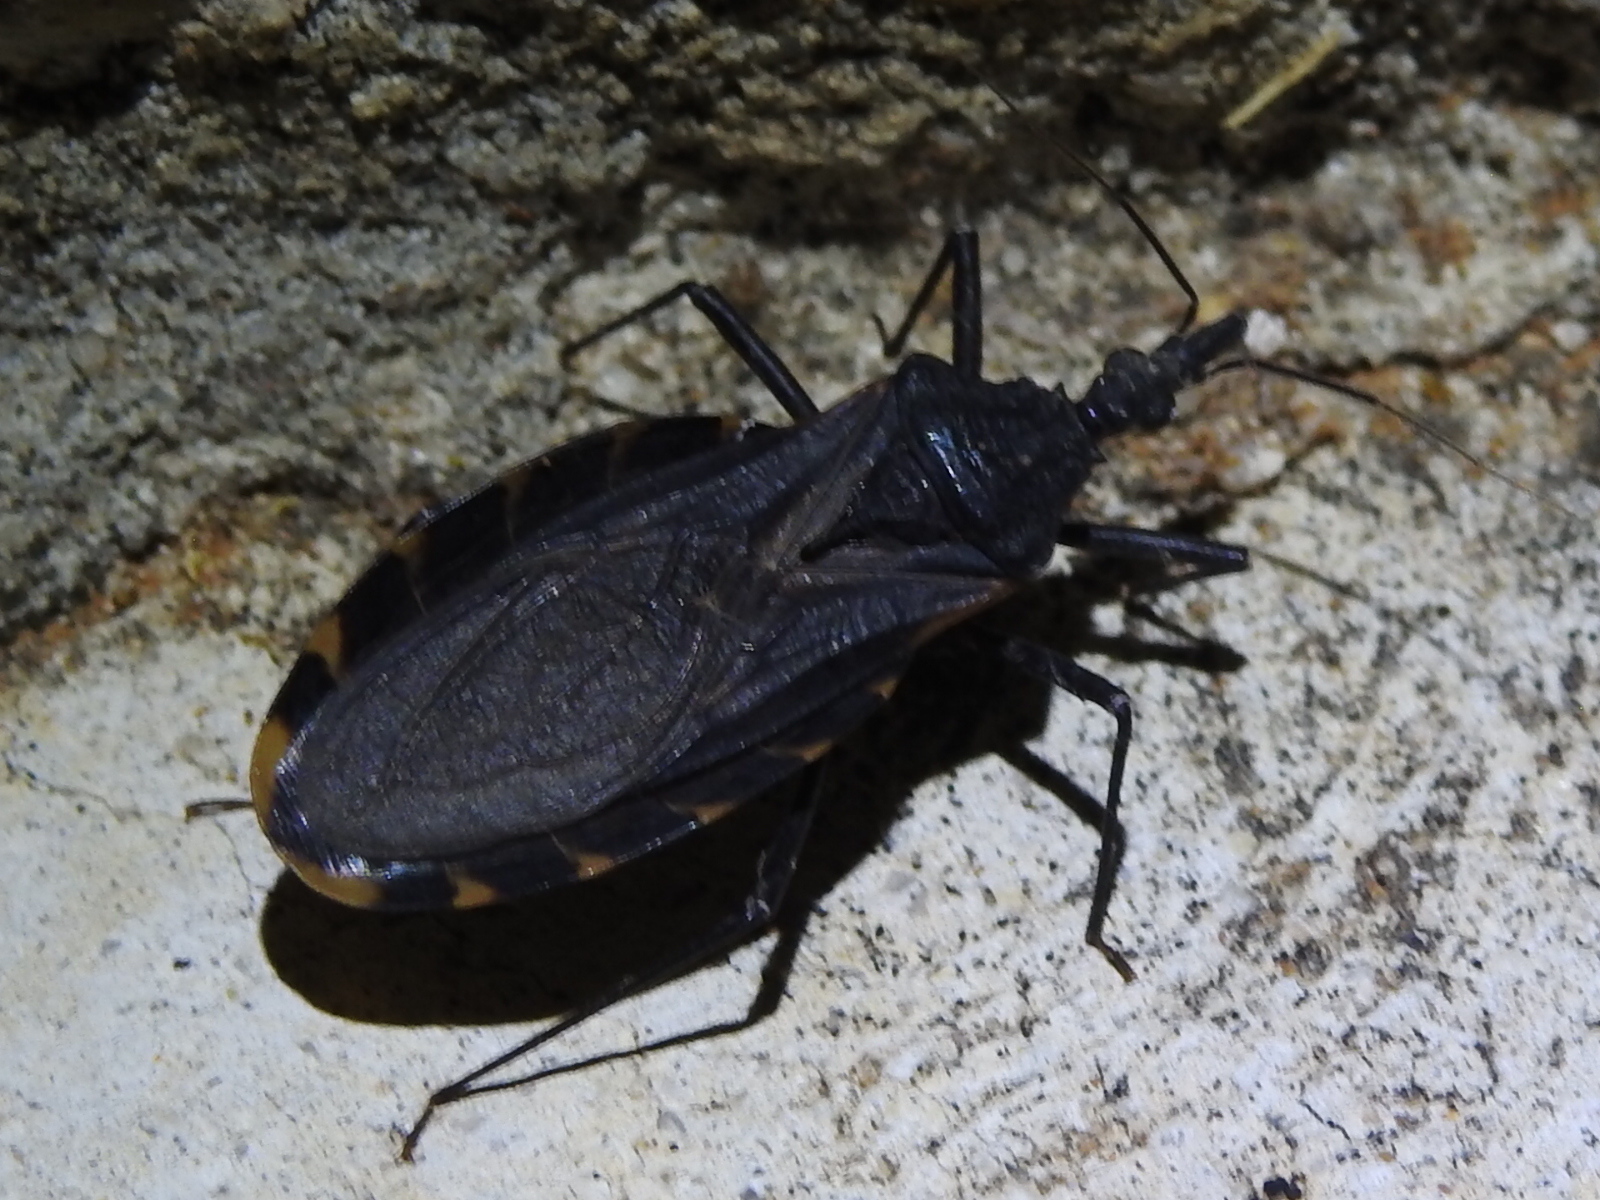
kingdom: Animalia
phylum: Arthropoda
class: Insecta
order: Hemiptera
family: Reduviidae
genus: Triatoma
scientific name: Triatoma gerstaeckeri
